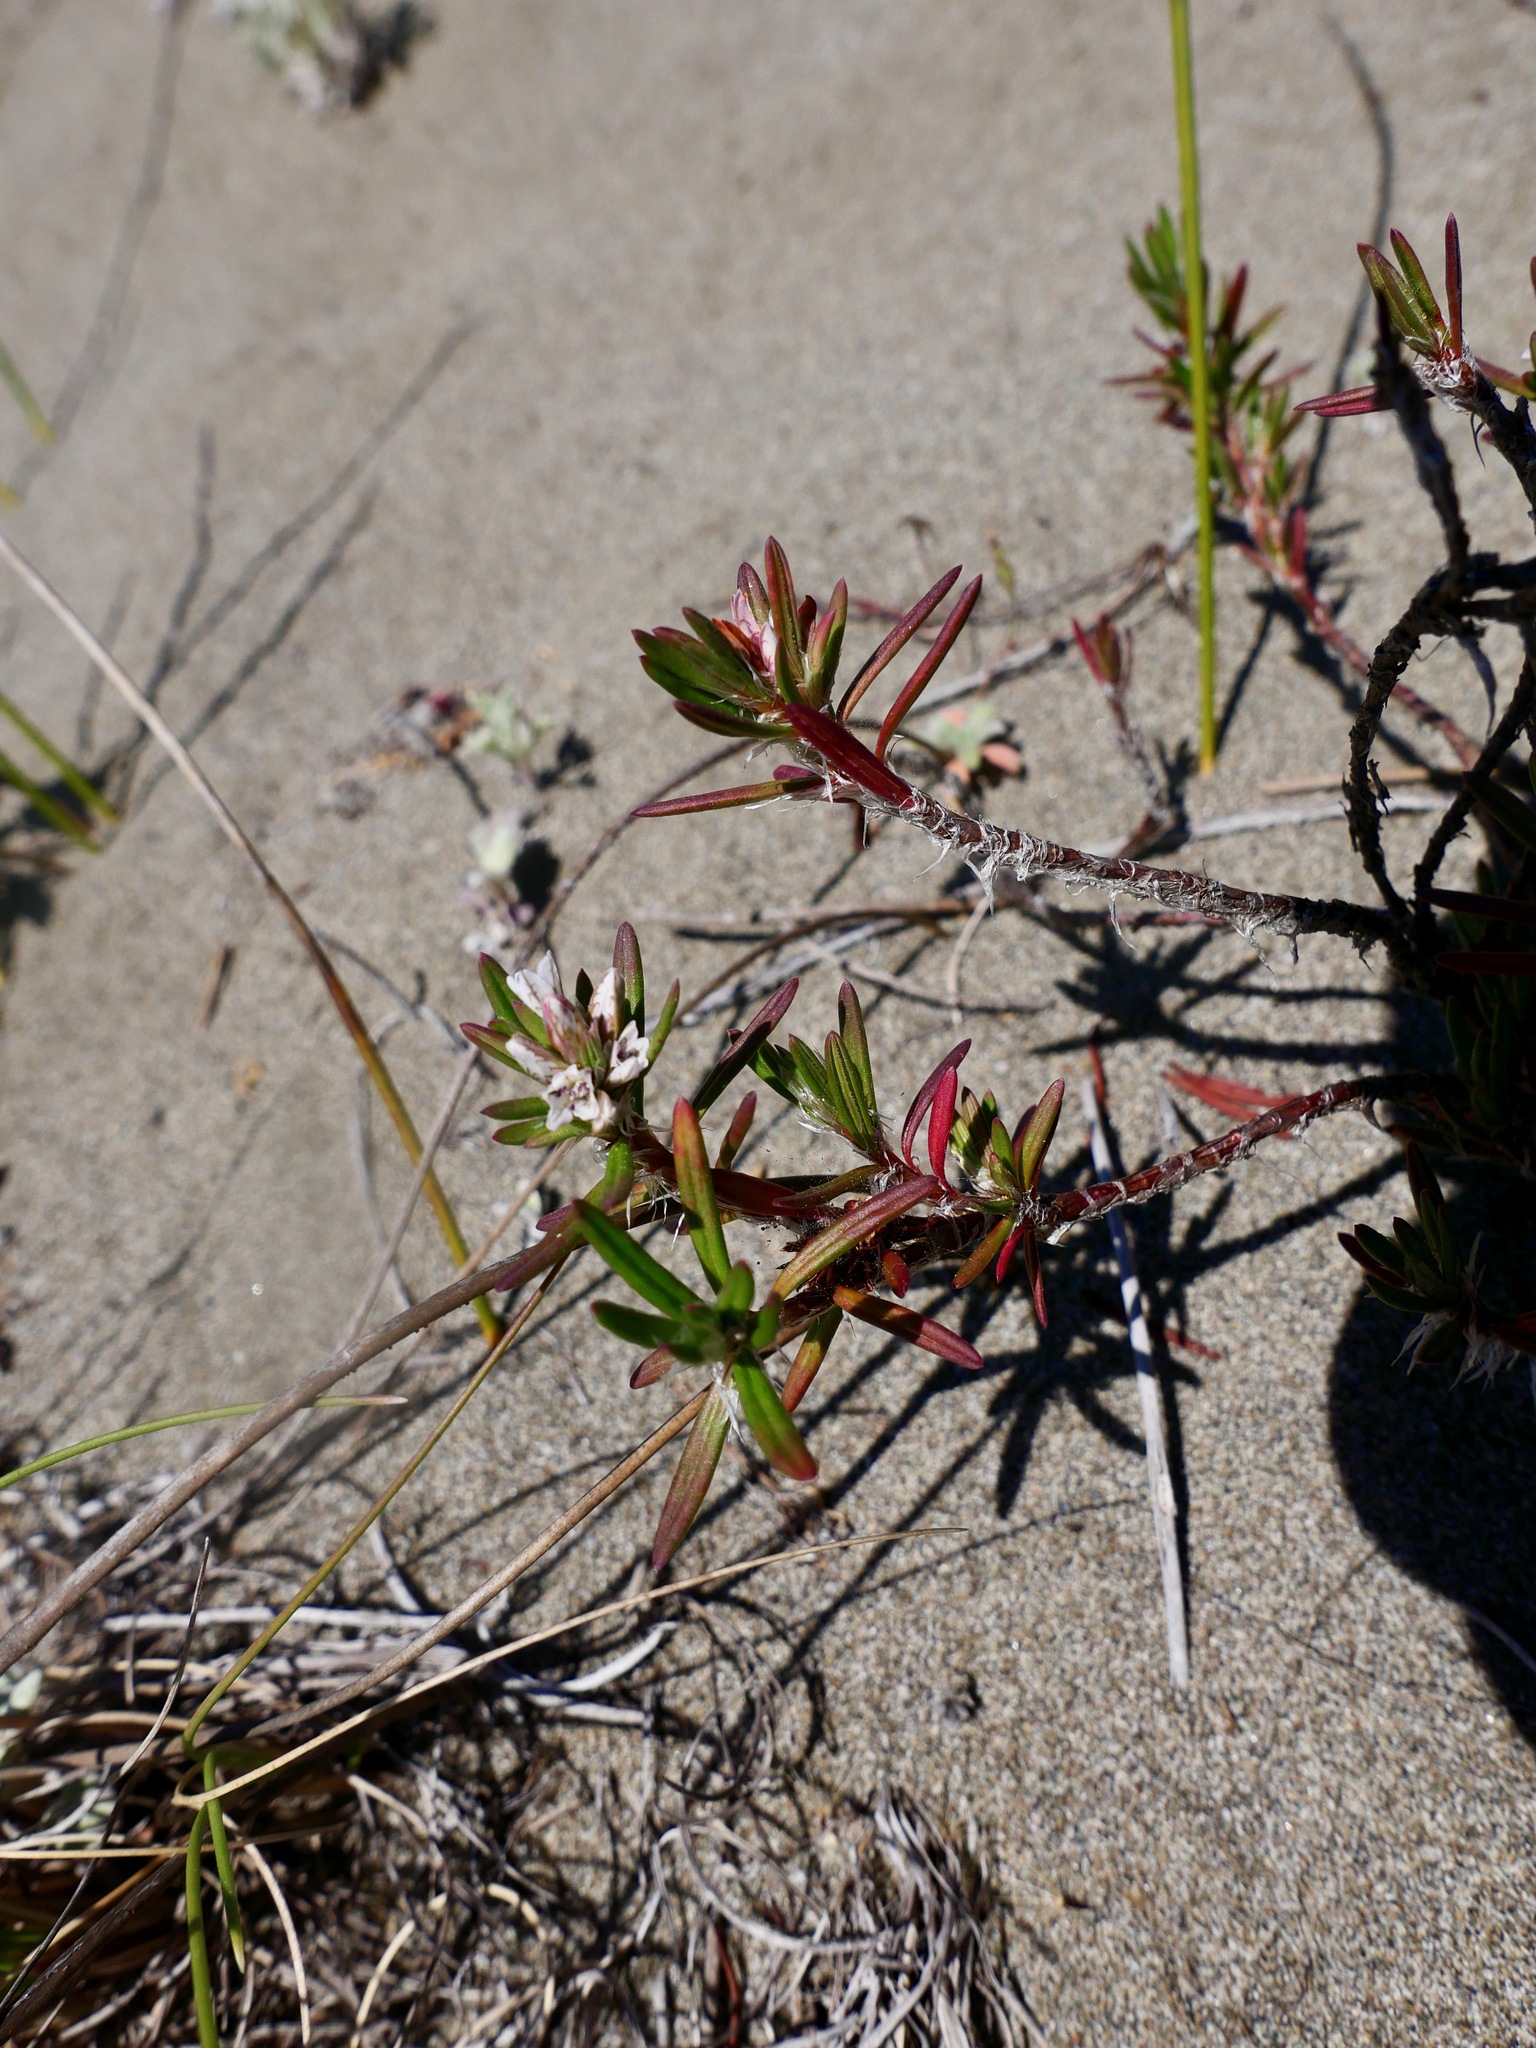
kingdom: Plantae
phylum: Tracheophyta
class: Magnoliopsida
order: Caryophyllales
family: Polygonaceae
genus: Polygonum
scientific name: Polygonum paronychia
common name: Dune knotweed
